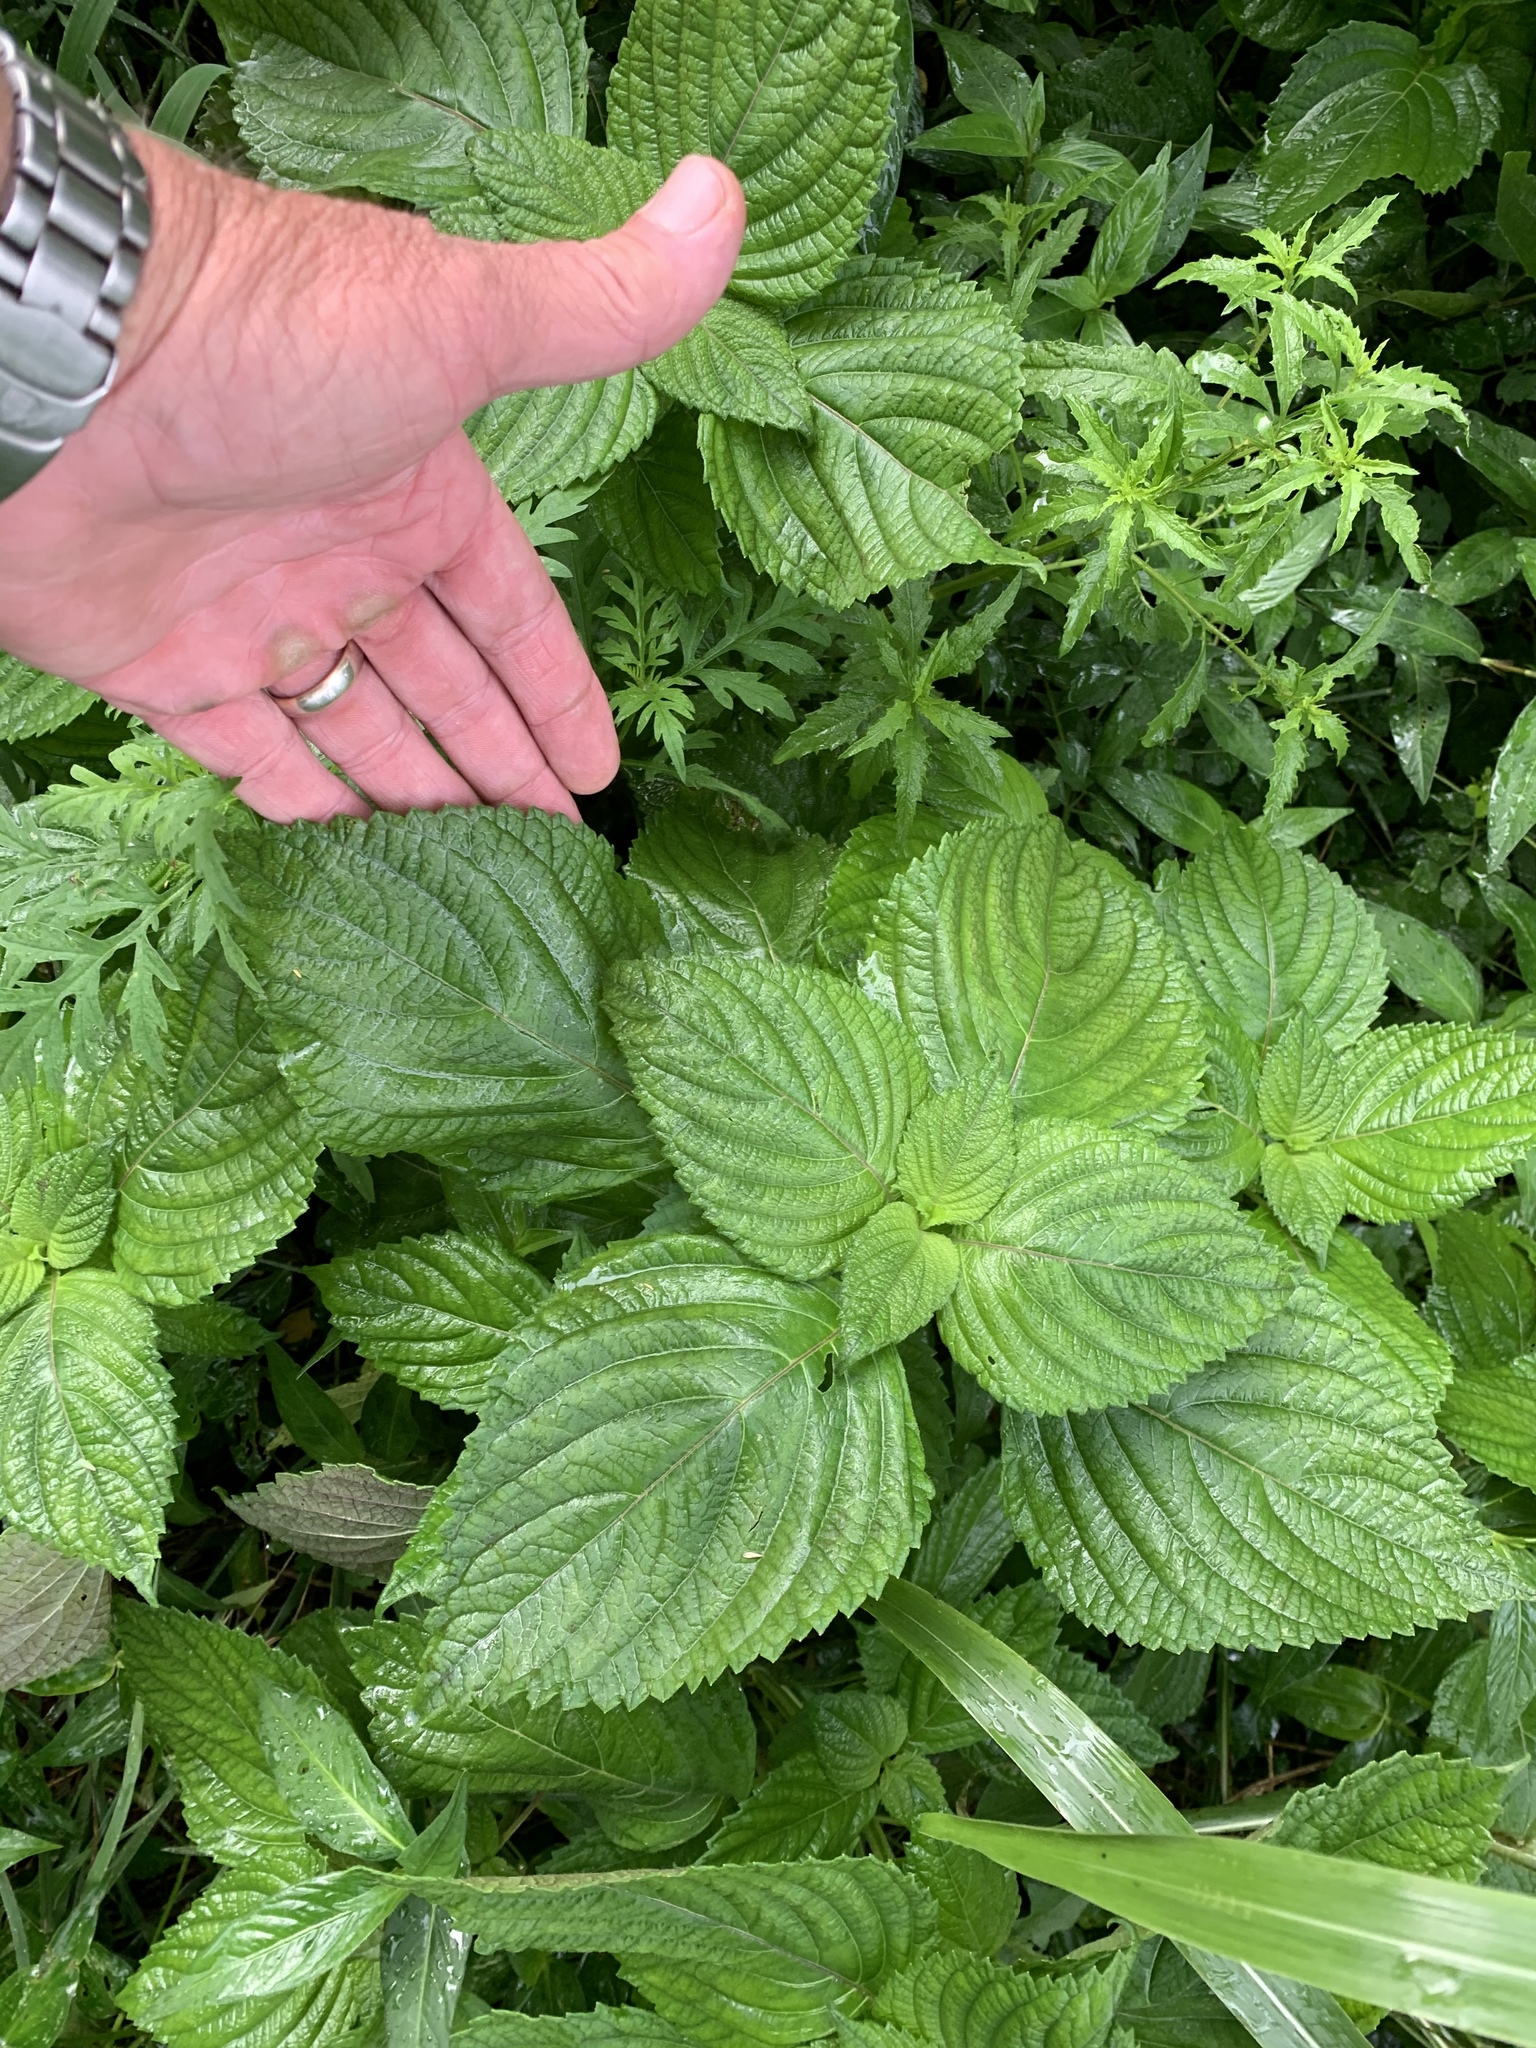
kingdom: Plantae
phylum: Tracheophyta
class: Magnoliopsida
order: Lamiales
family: Lamiaceae
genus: Perilla
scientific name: Perilla frutescens
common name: Perilla
